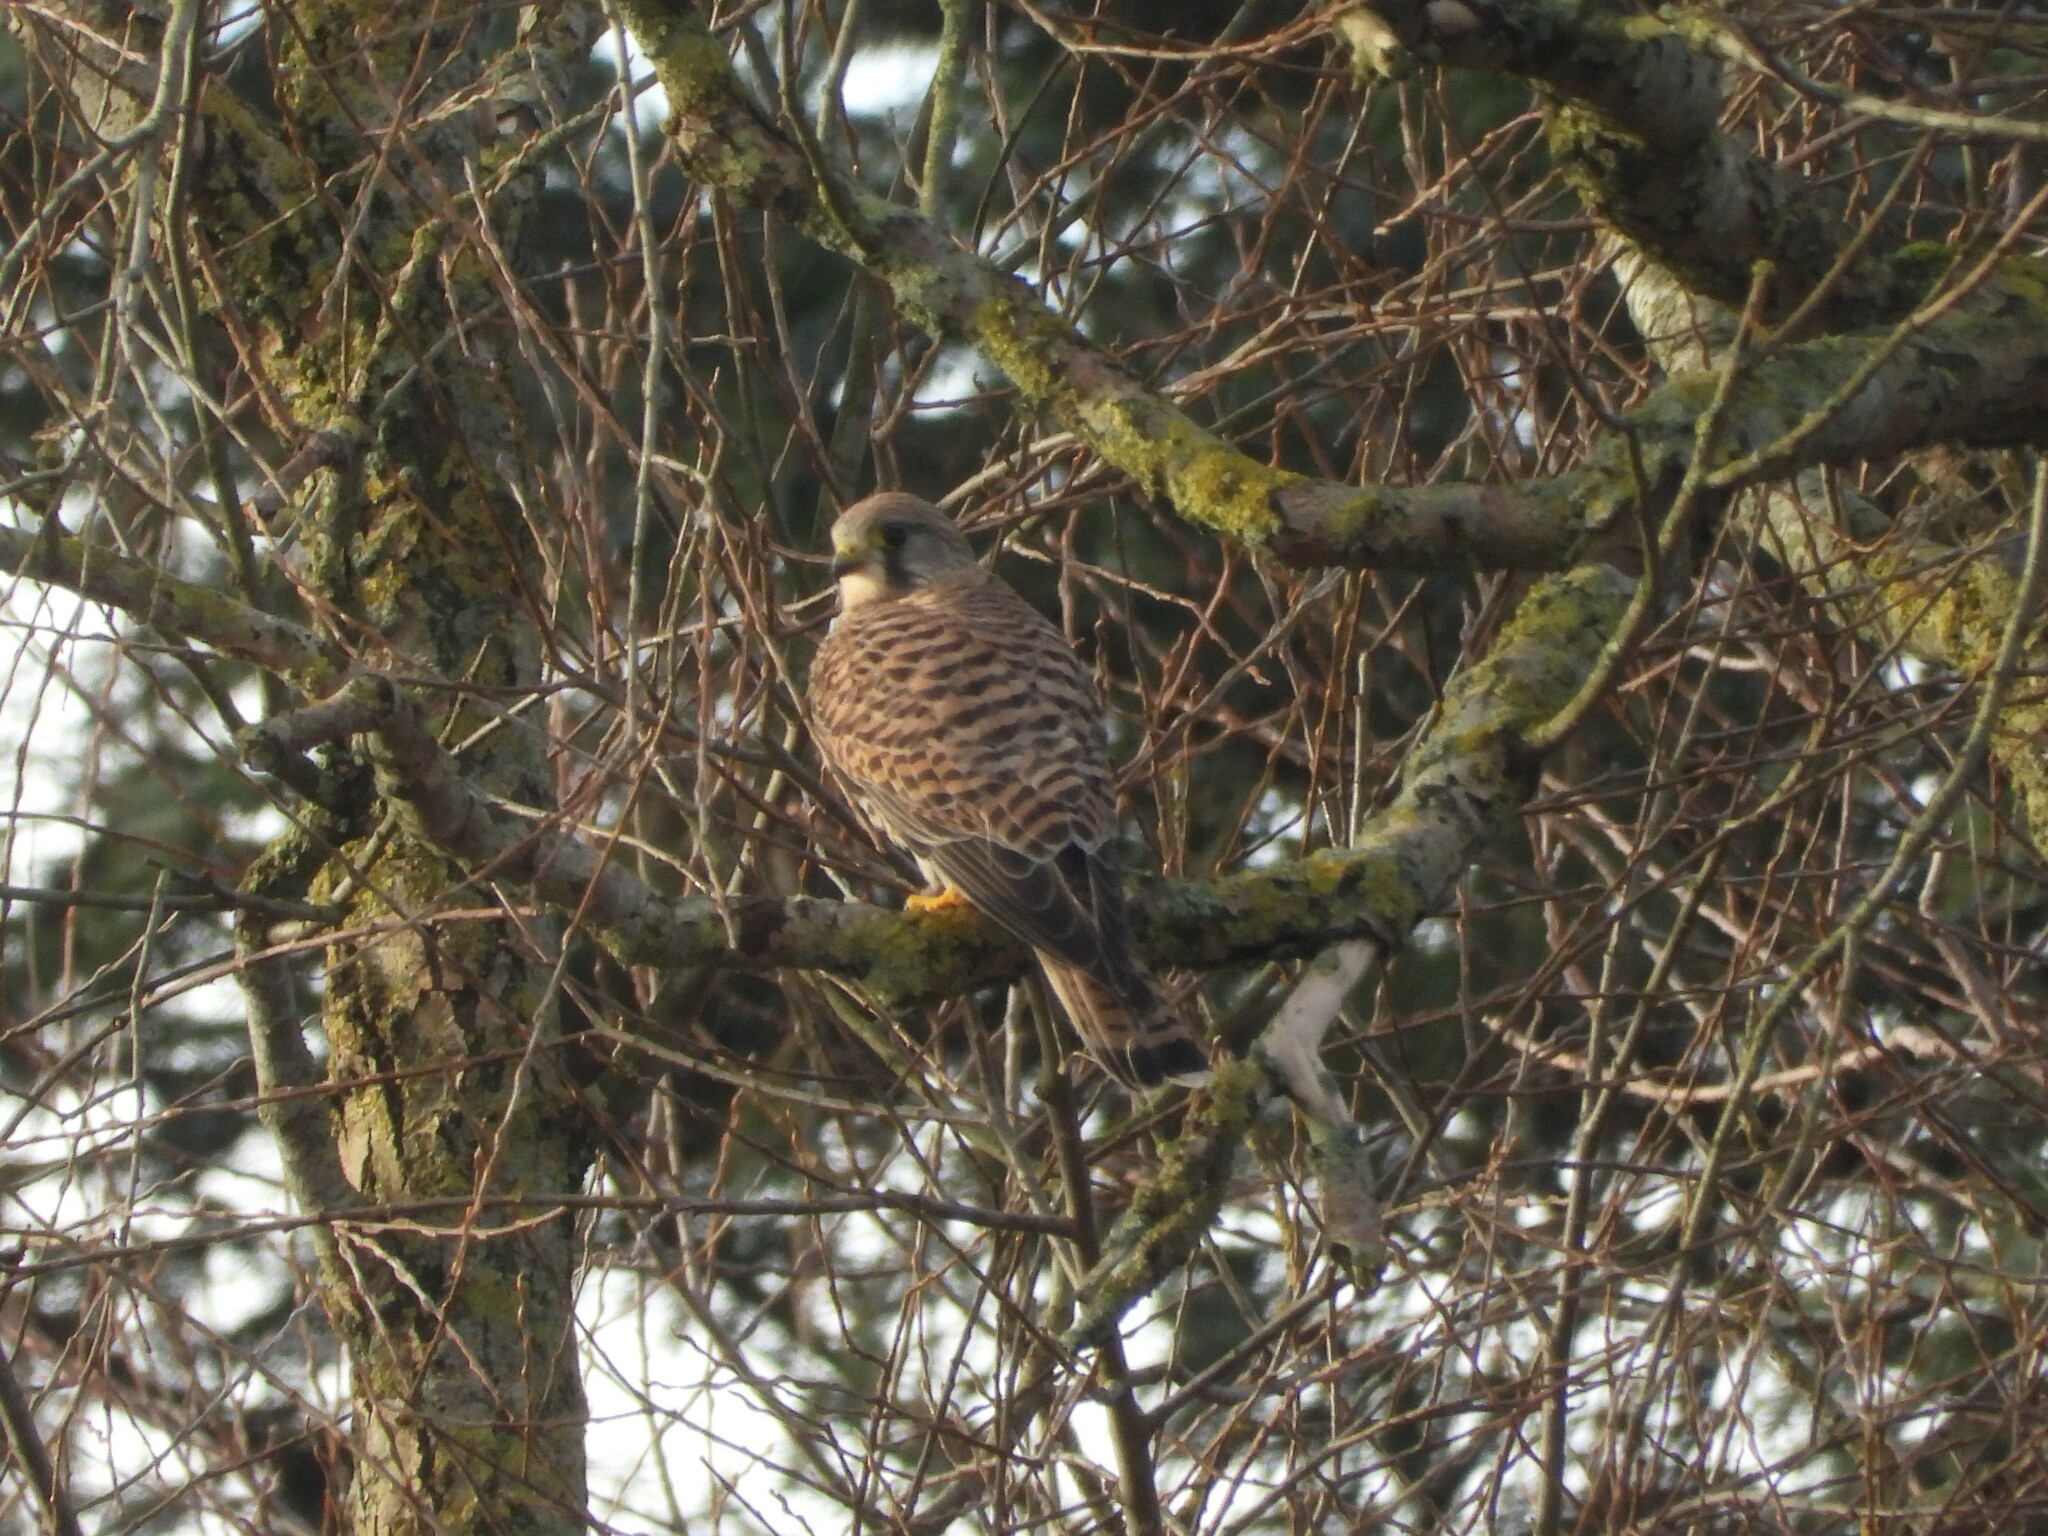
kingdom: Animalia
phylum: Chordata
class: Aves
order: Falconiformes
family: Falconidae
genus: Falco
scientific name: Falco tinnunculus
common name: Common kestrel
